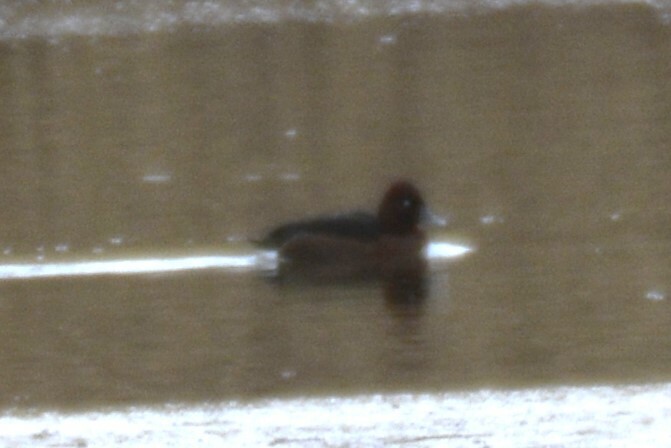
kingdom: Animalia
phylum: Chordata
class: Aves
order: Anseriformes
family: Anatidae
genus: Aythya
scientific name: Aythya nyroca
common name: Ferruginous duck
